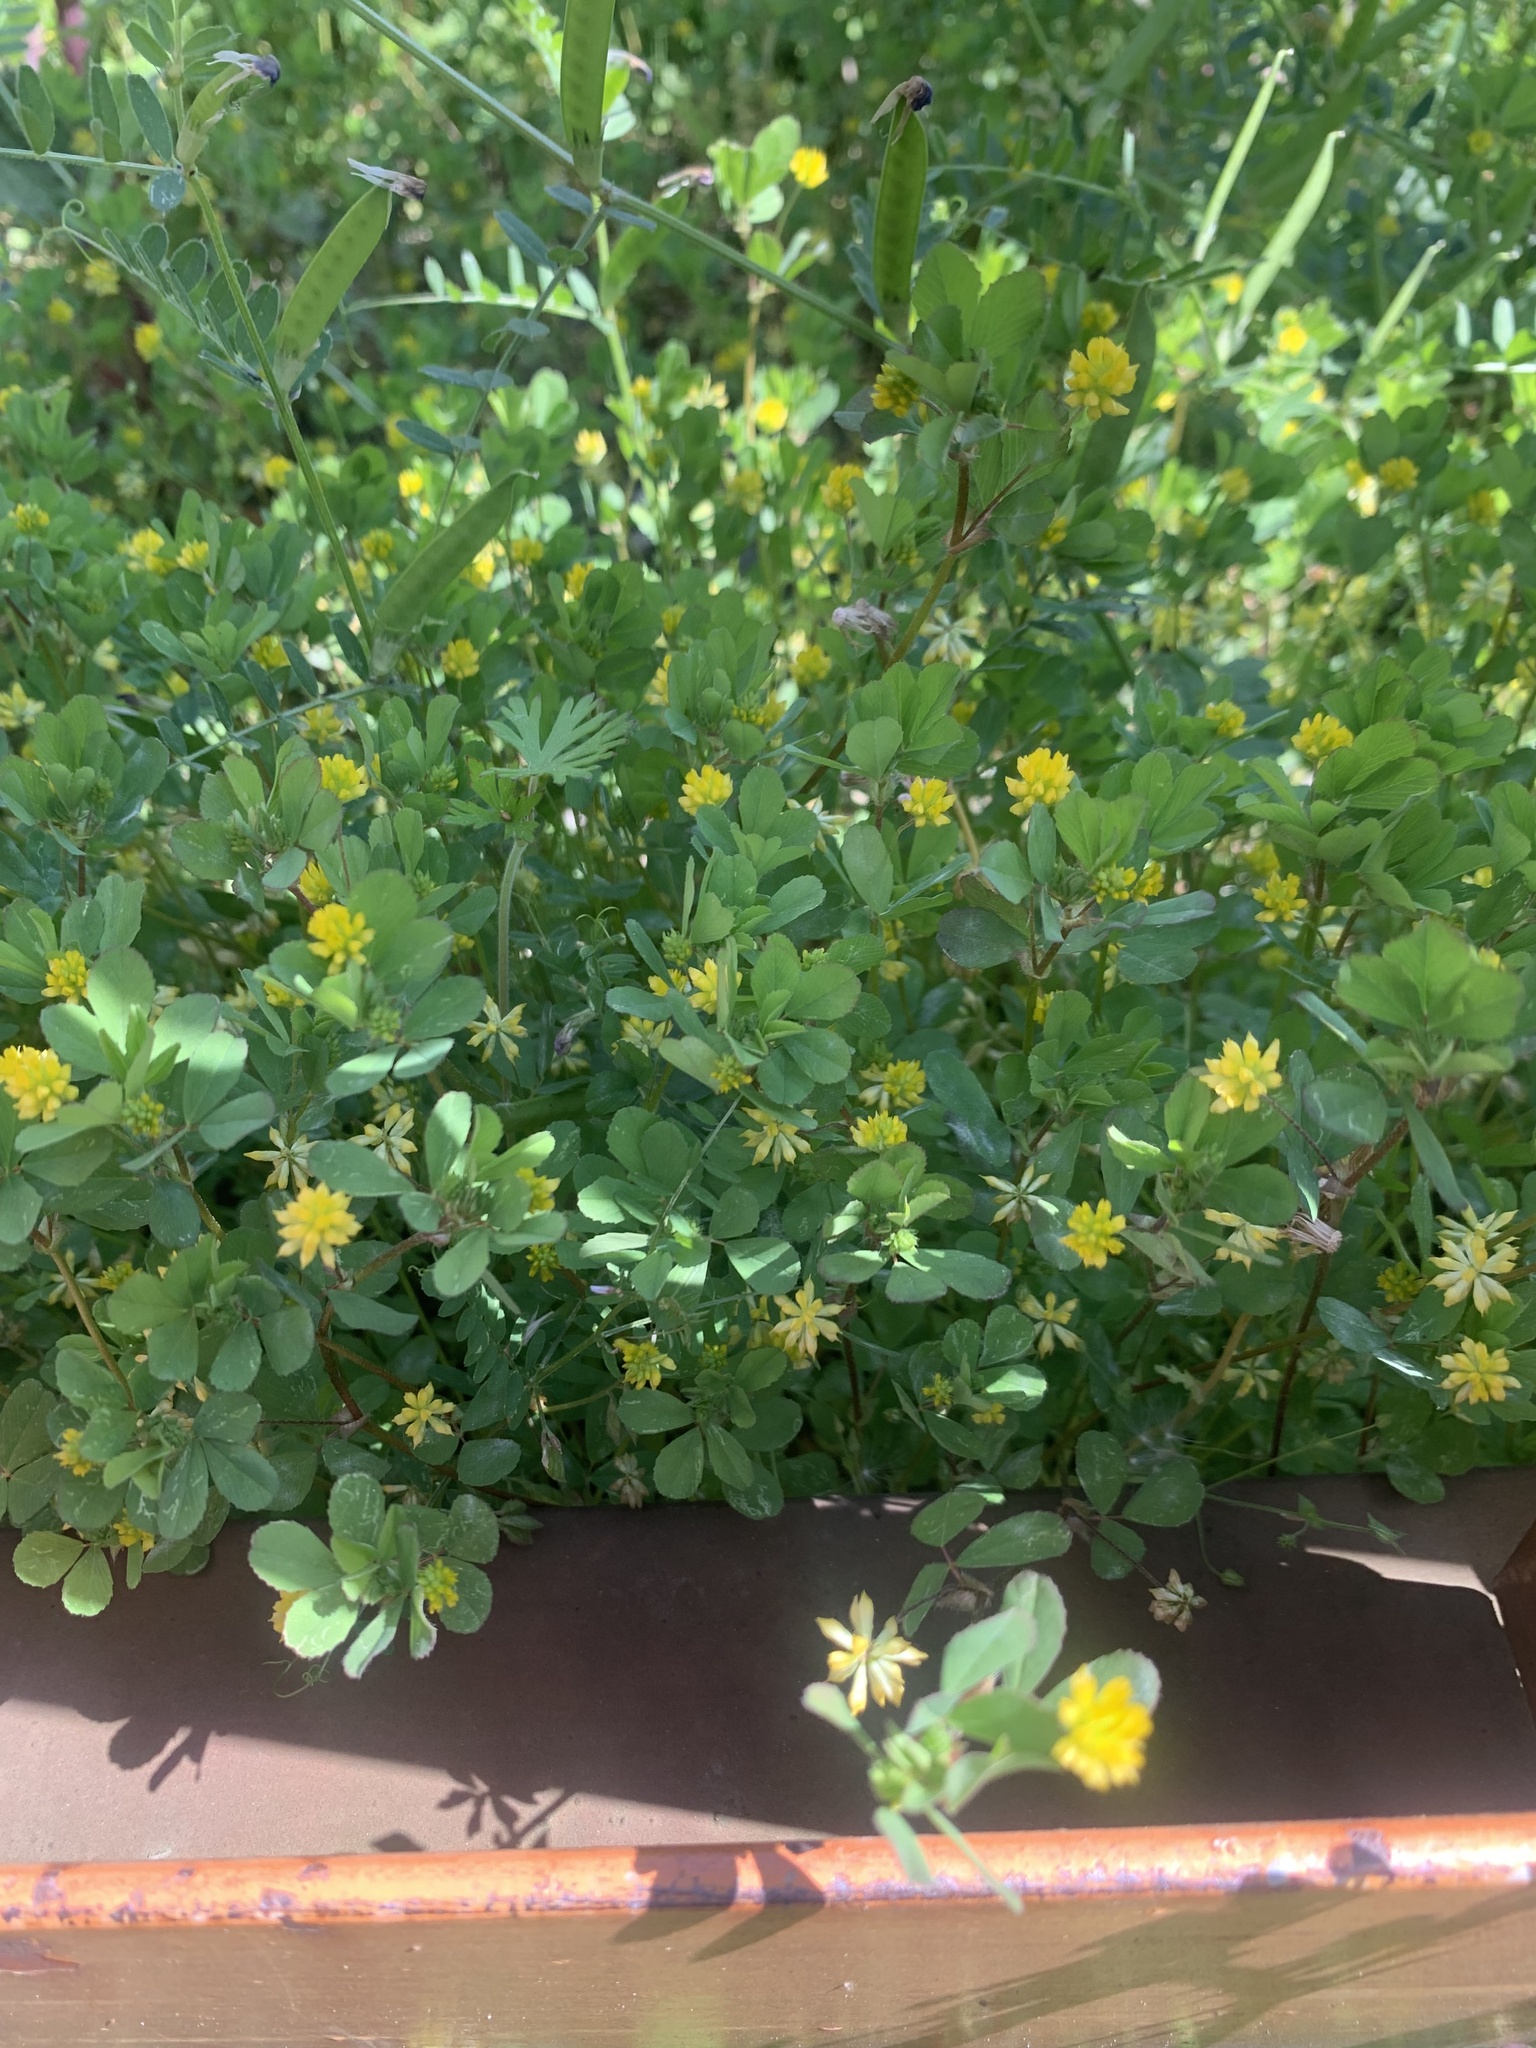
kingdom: Plantae
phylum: Tracheophyta
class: Magnoliopsida
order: Fabales
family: Fabaceae
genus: Trifolium
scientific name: Trifolium dubium
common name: Suckling clover
